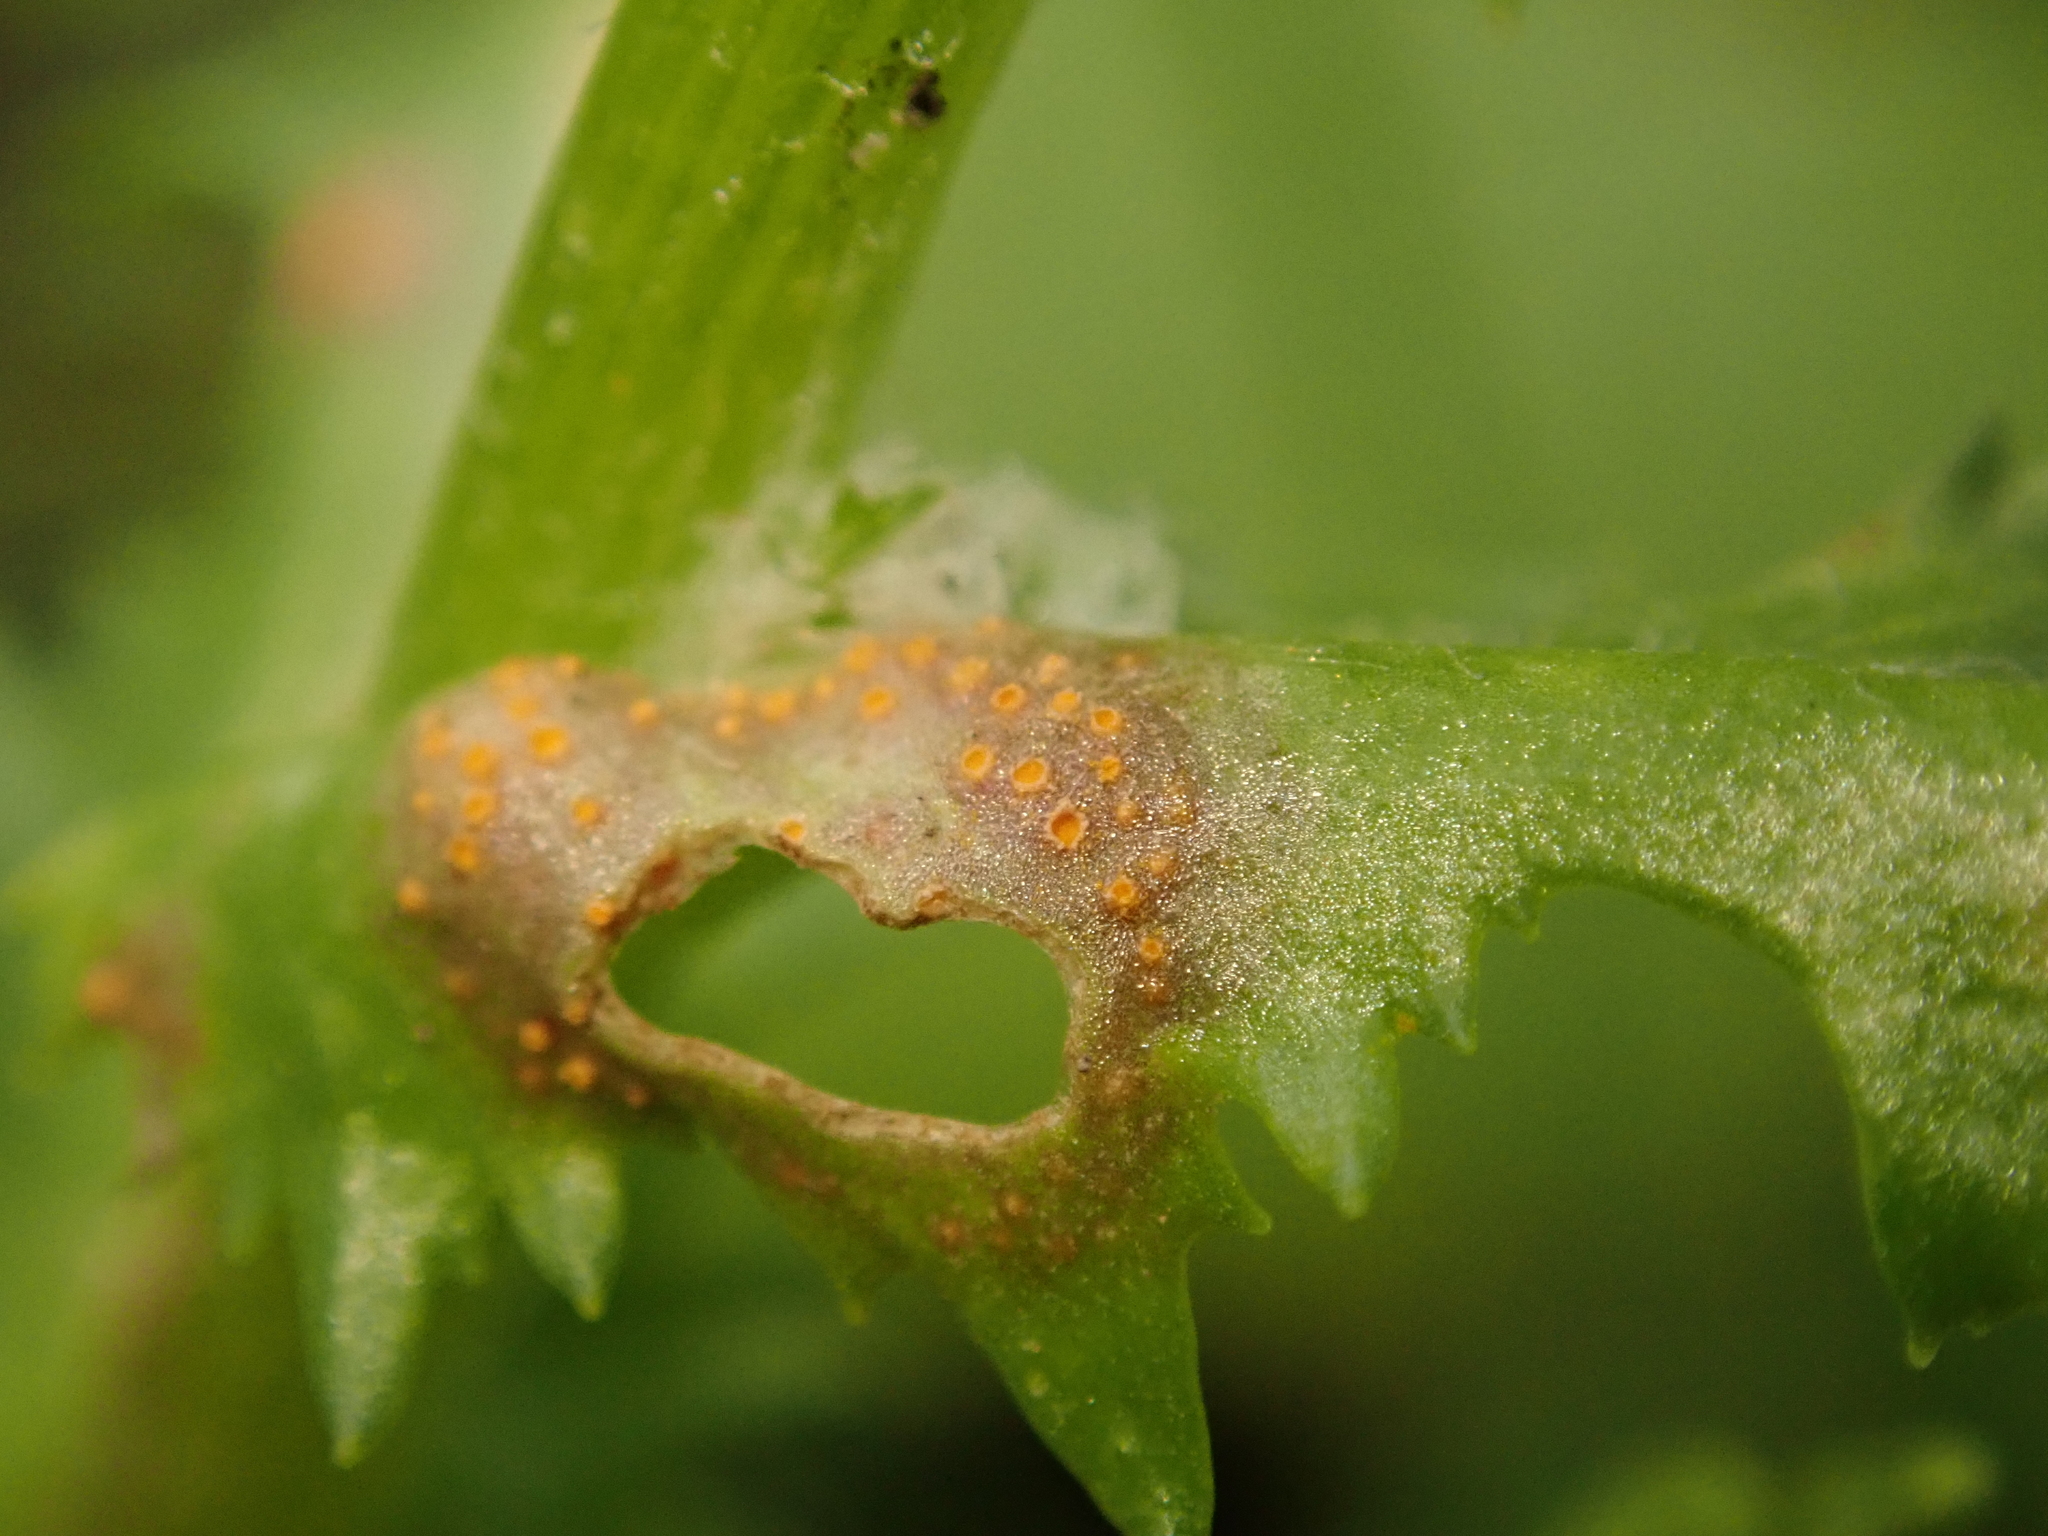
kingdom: Fungi
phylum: Basidiomycota
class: Pucciniomycetes
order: Pucciniales
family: Pucciniaceae
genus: Puccinia
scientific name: Puccinia lagenophorae
